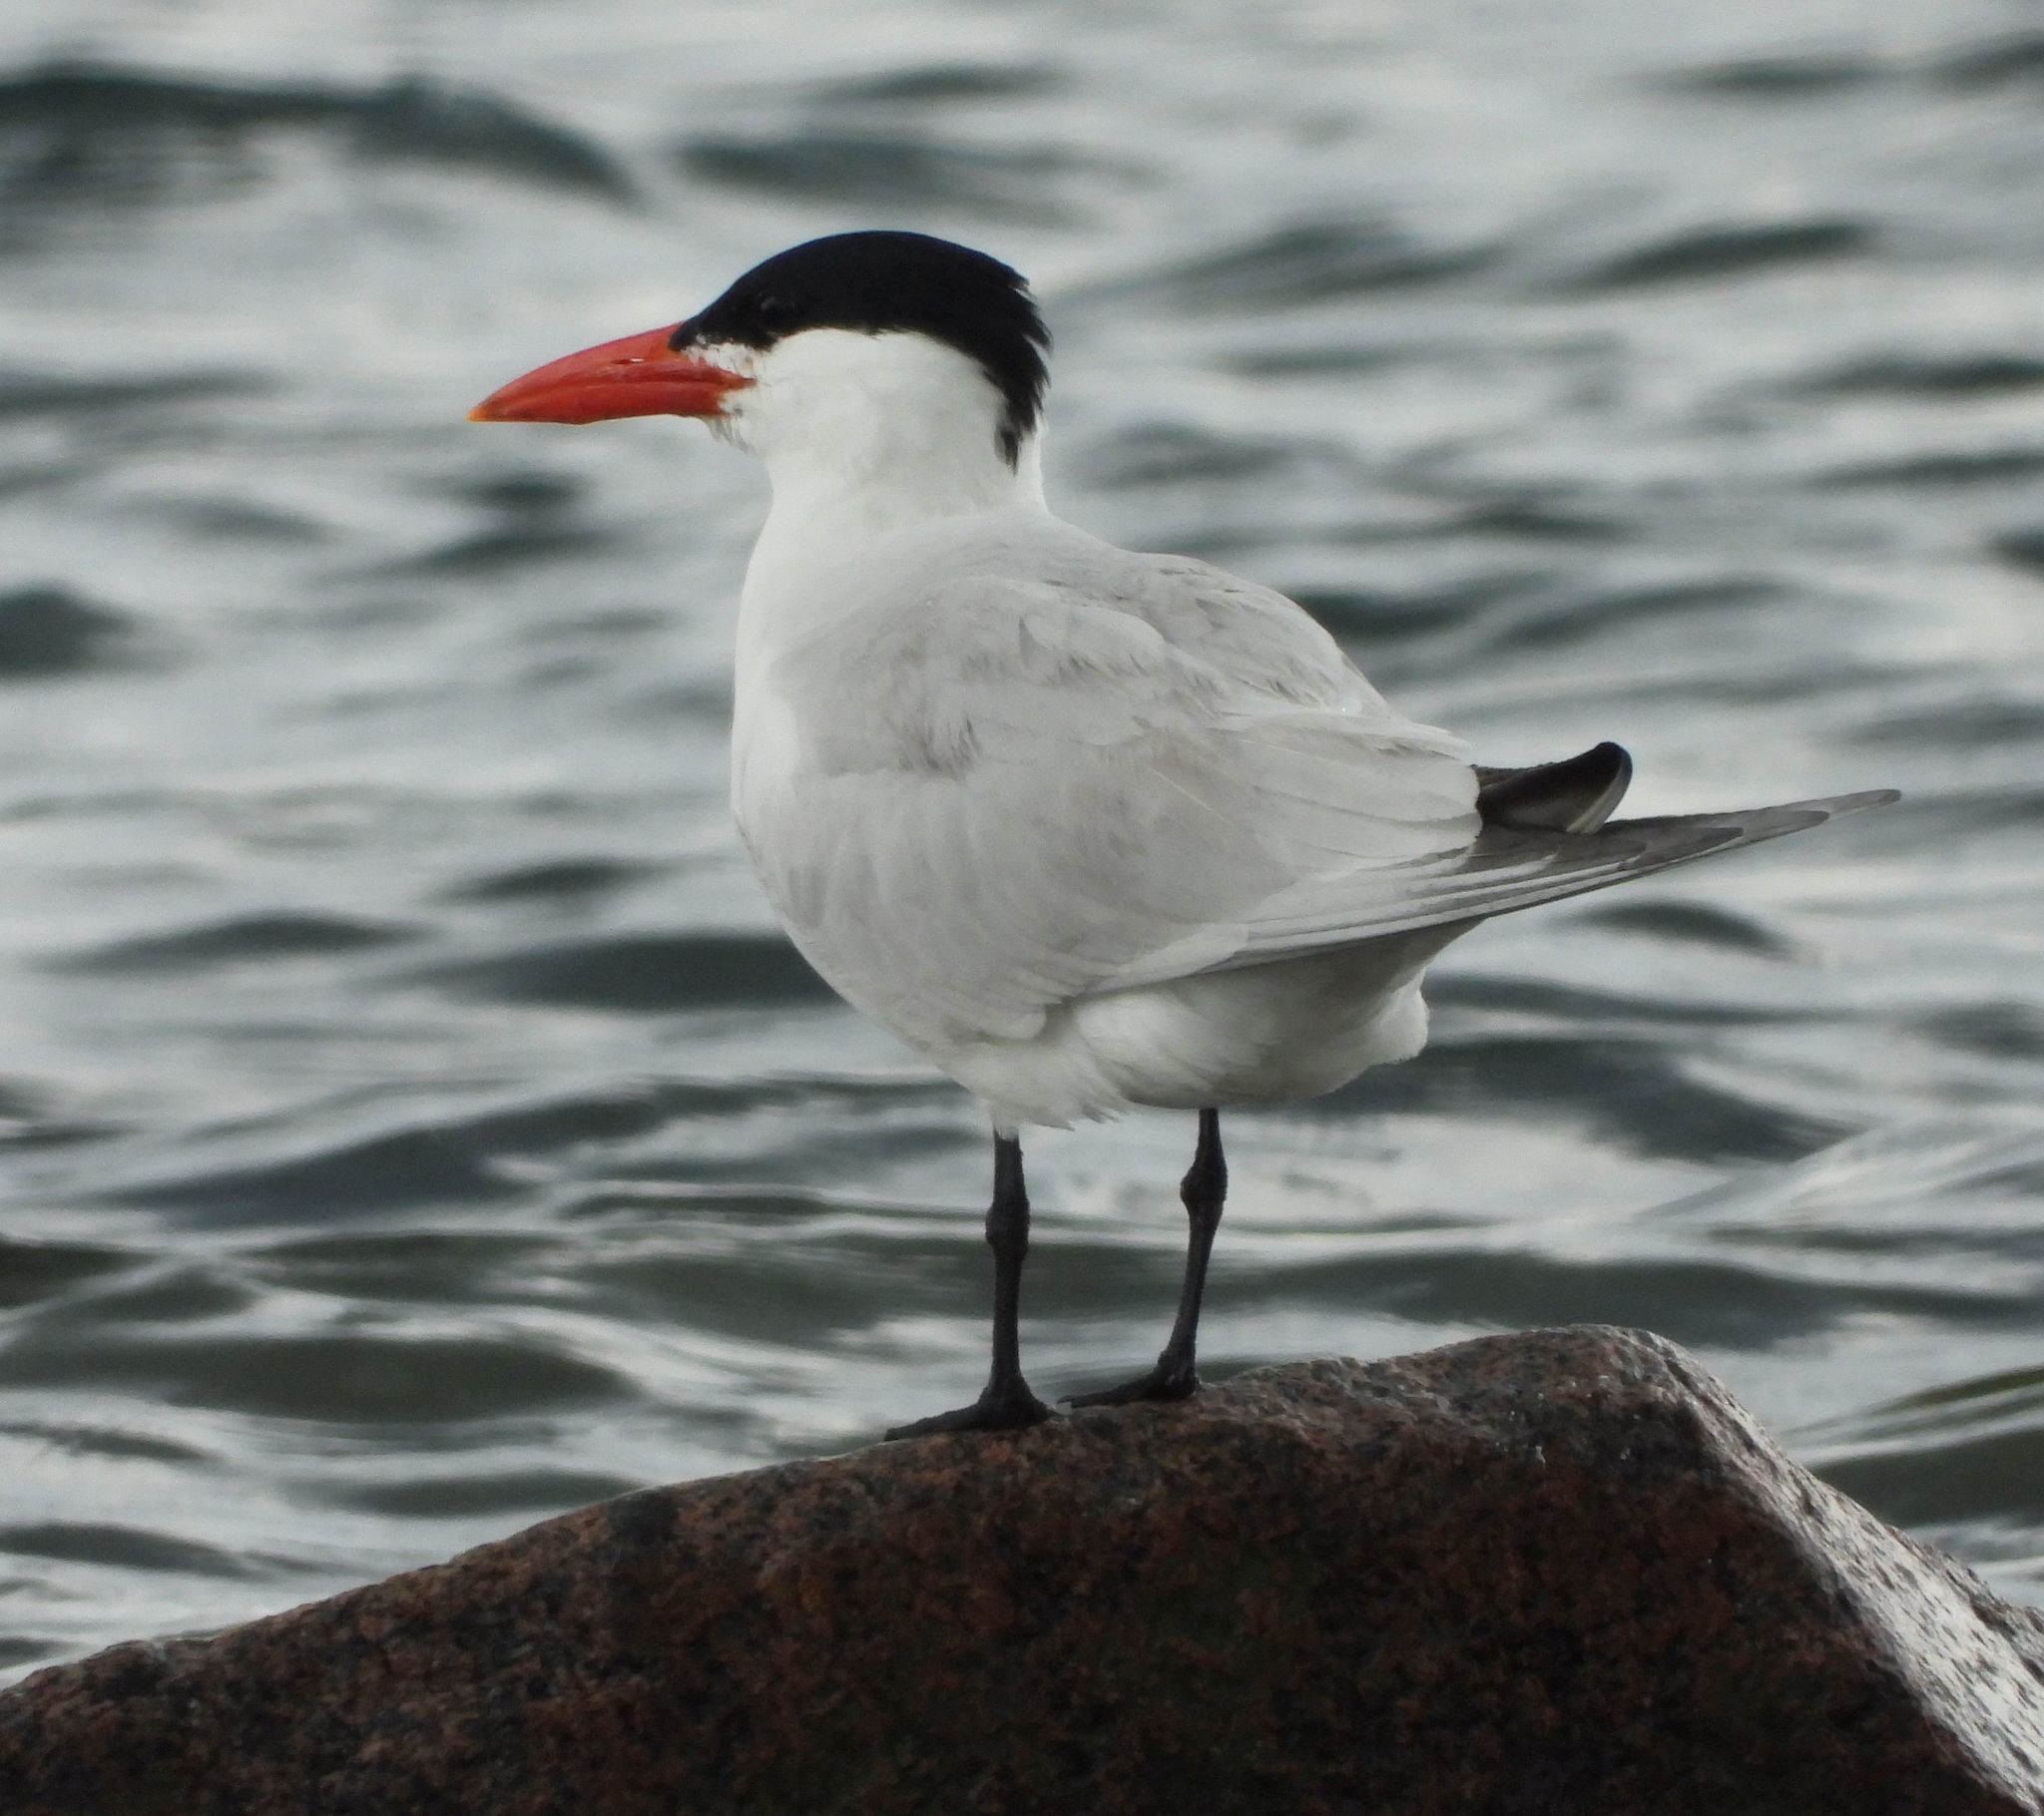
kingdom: Animalia
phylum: Chordata
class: Aves
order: Charadriiformes
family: Laridae
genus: Hydroprogne
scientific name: Hydroprogne caspia
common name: Caspian tern
